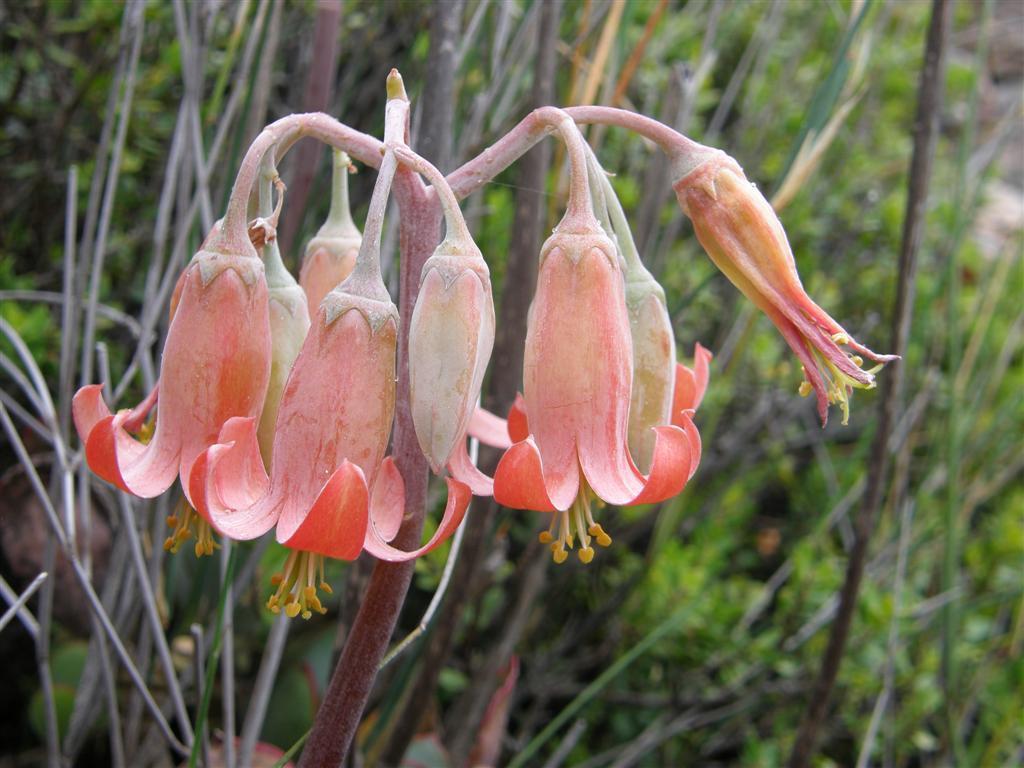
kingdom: Plantae
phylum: Tracheophyta
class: Magnoliopsida
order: Saxifragales
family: Crassulaceae
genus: Cotyledon
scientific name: Cotyledon orbiculata
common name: Pig's ear
